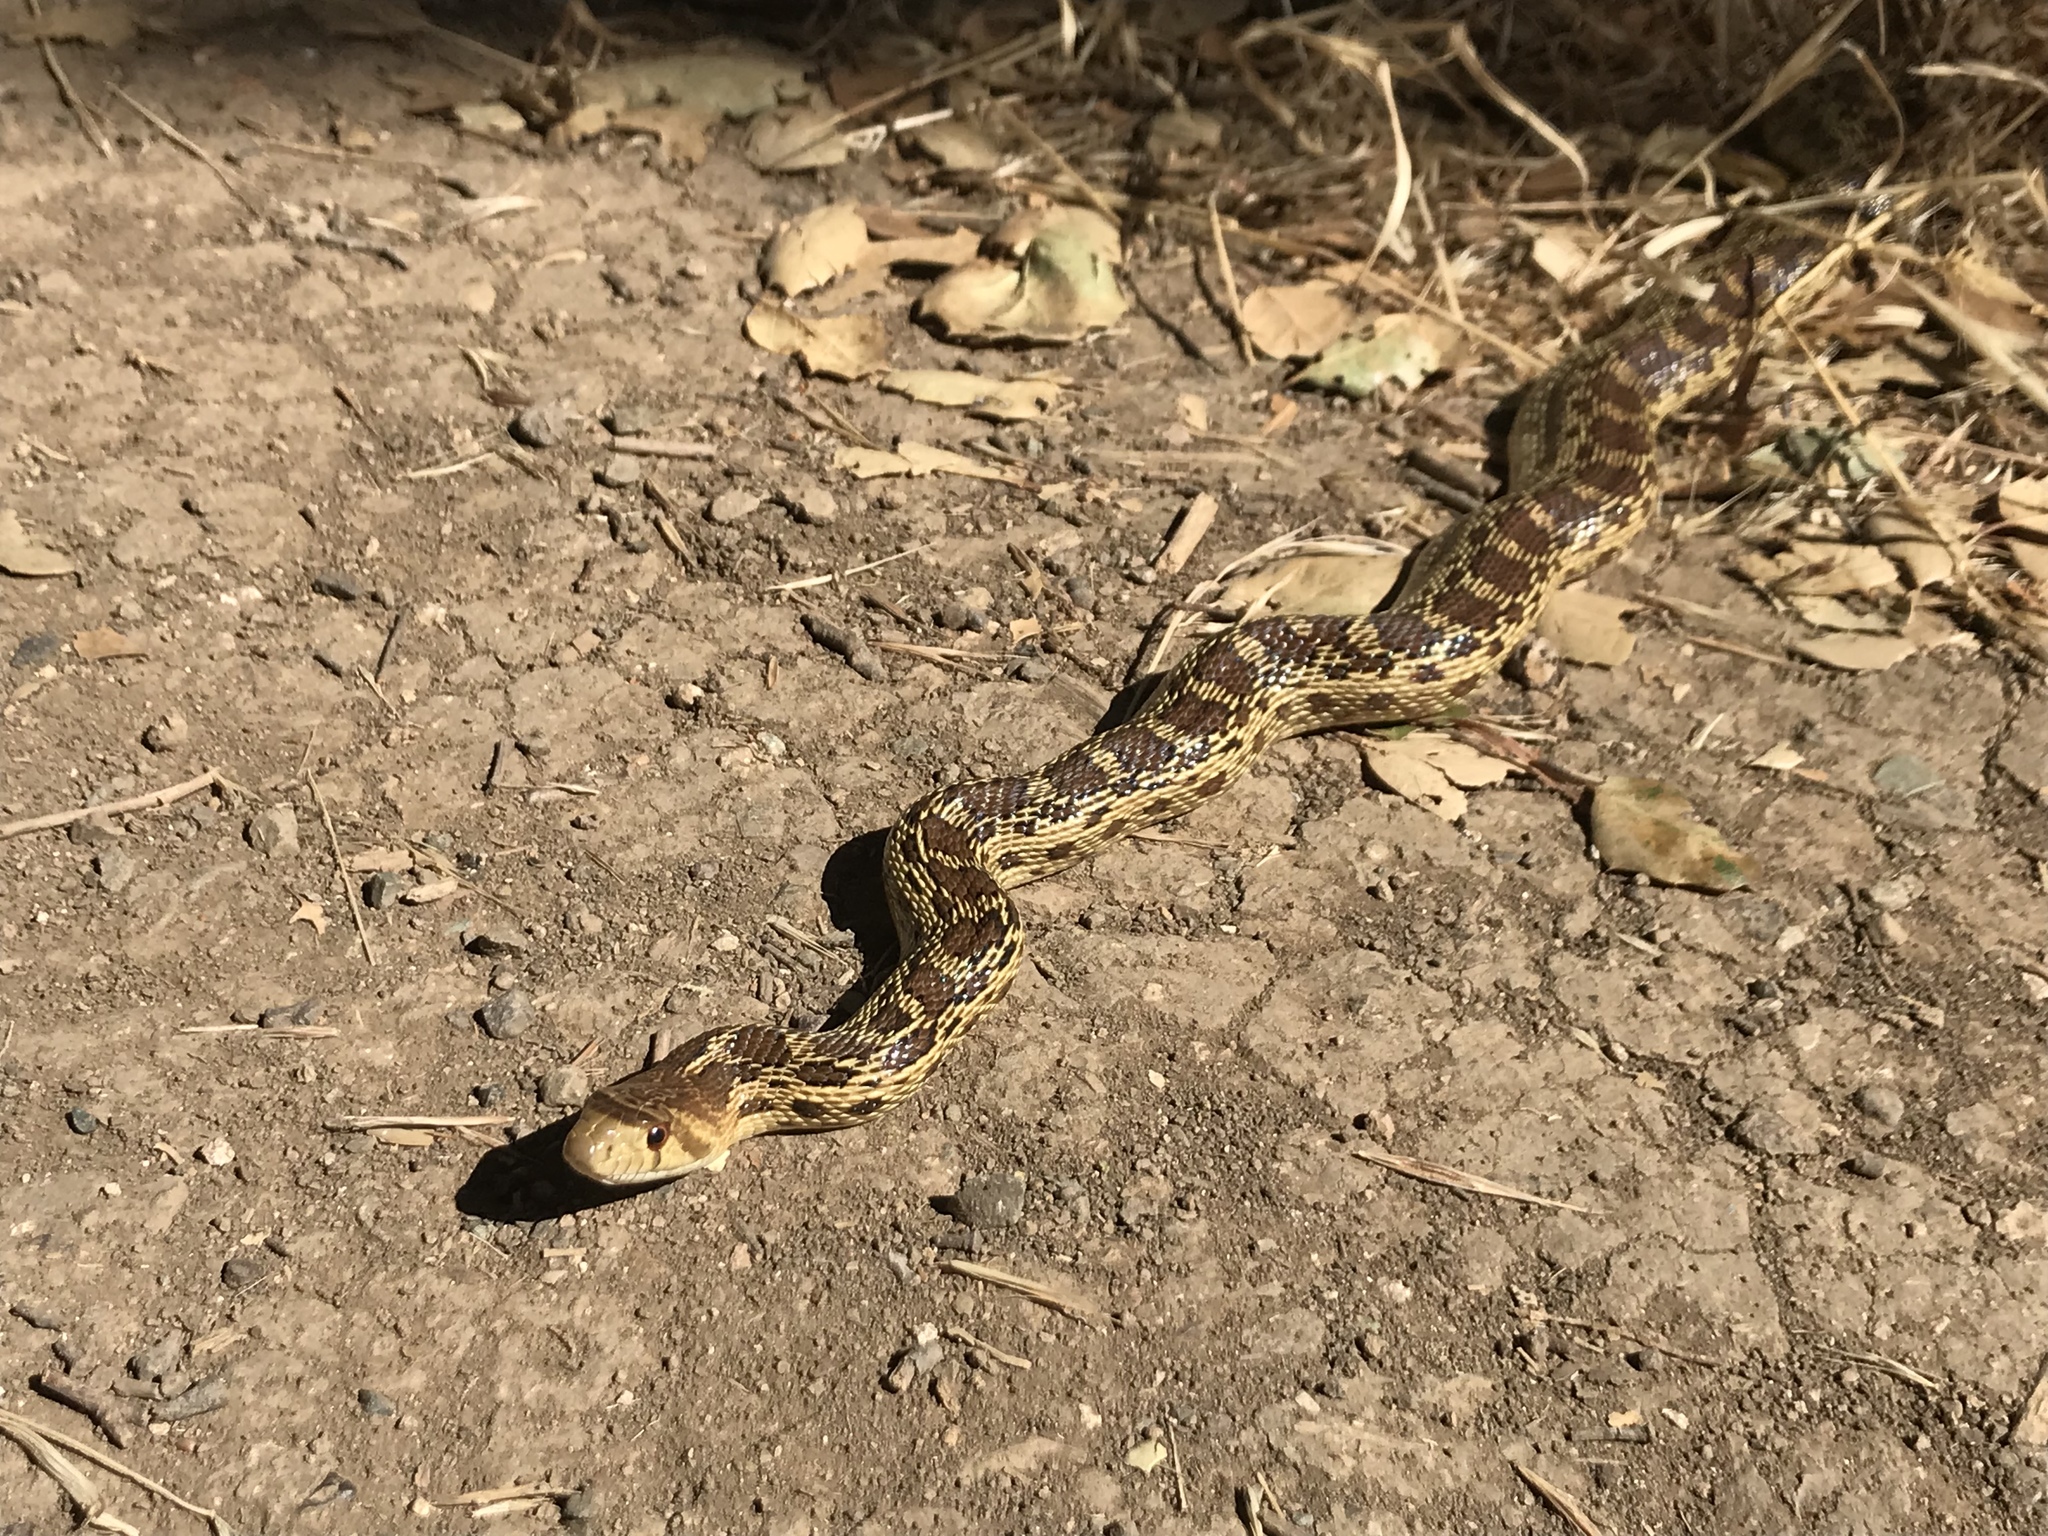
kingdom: Animalia
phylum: Chordata
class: Squamata
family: Colubridae
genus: Pituophis
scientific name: Pituophis catenifer
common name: Gopher snake
